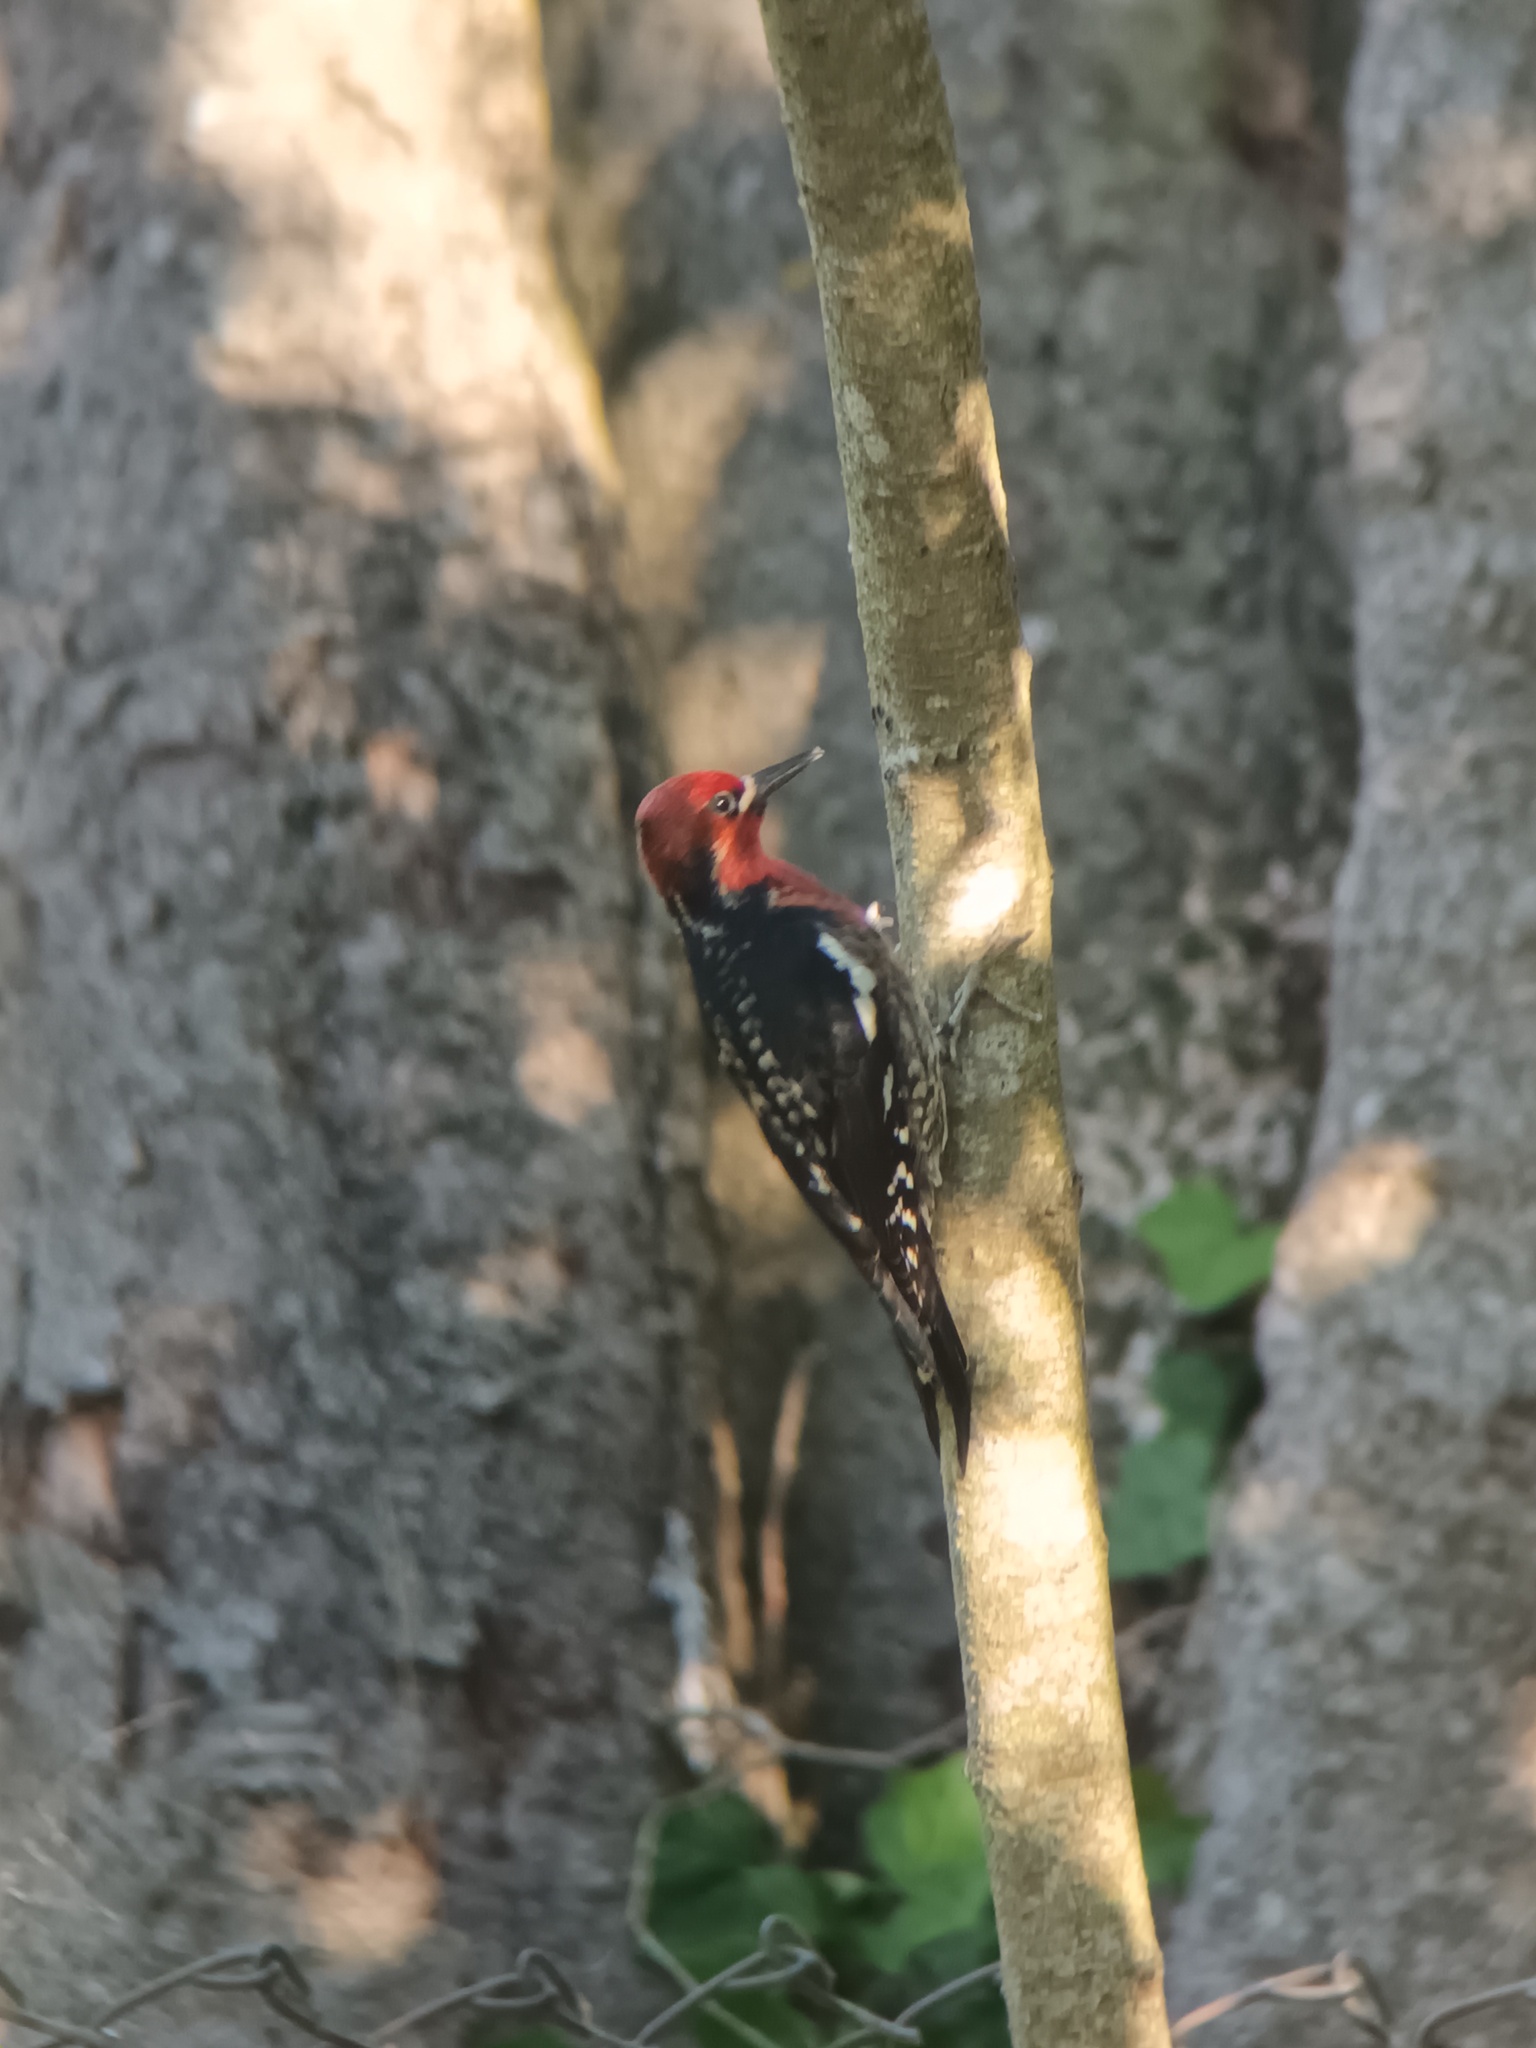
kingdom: Animalia
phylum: Chordata
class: Aves
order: Piciformes
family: Picidae
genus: Sphyrapicus
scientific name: Sphyrapicus ruber
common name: Red-breasted sapsucker
